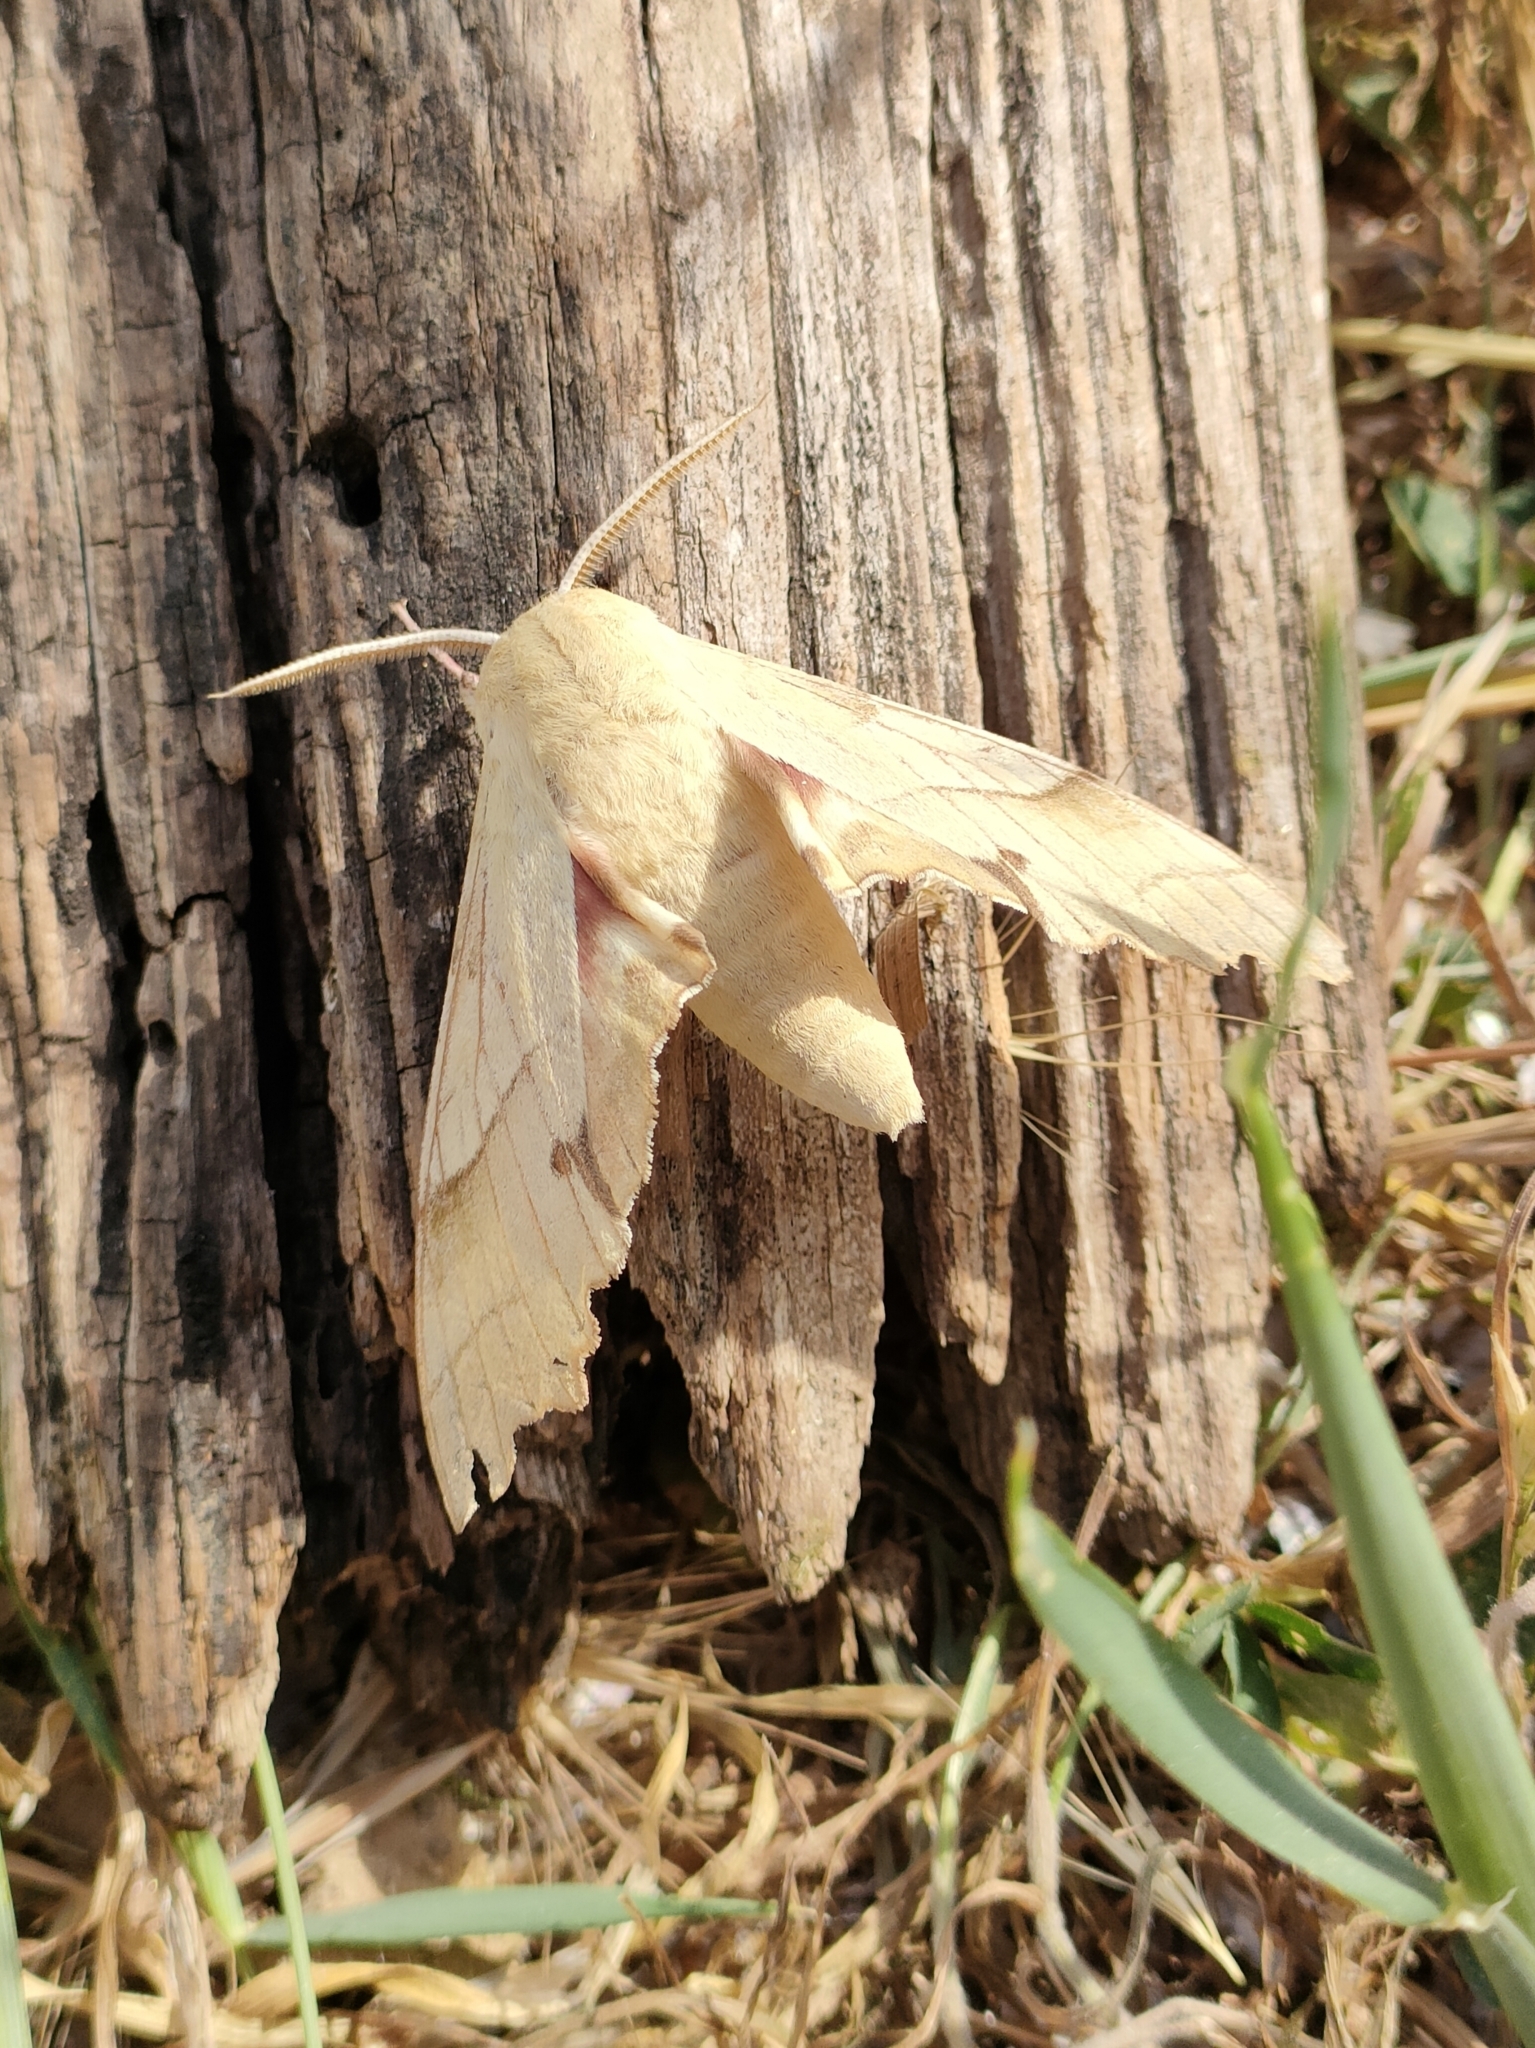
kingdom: Animalia
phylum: Arthropoda
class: Insecta
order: Lepidoptera
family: Sphingidae
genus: Marumba
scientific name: Marumba quercus
